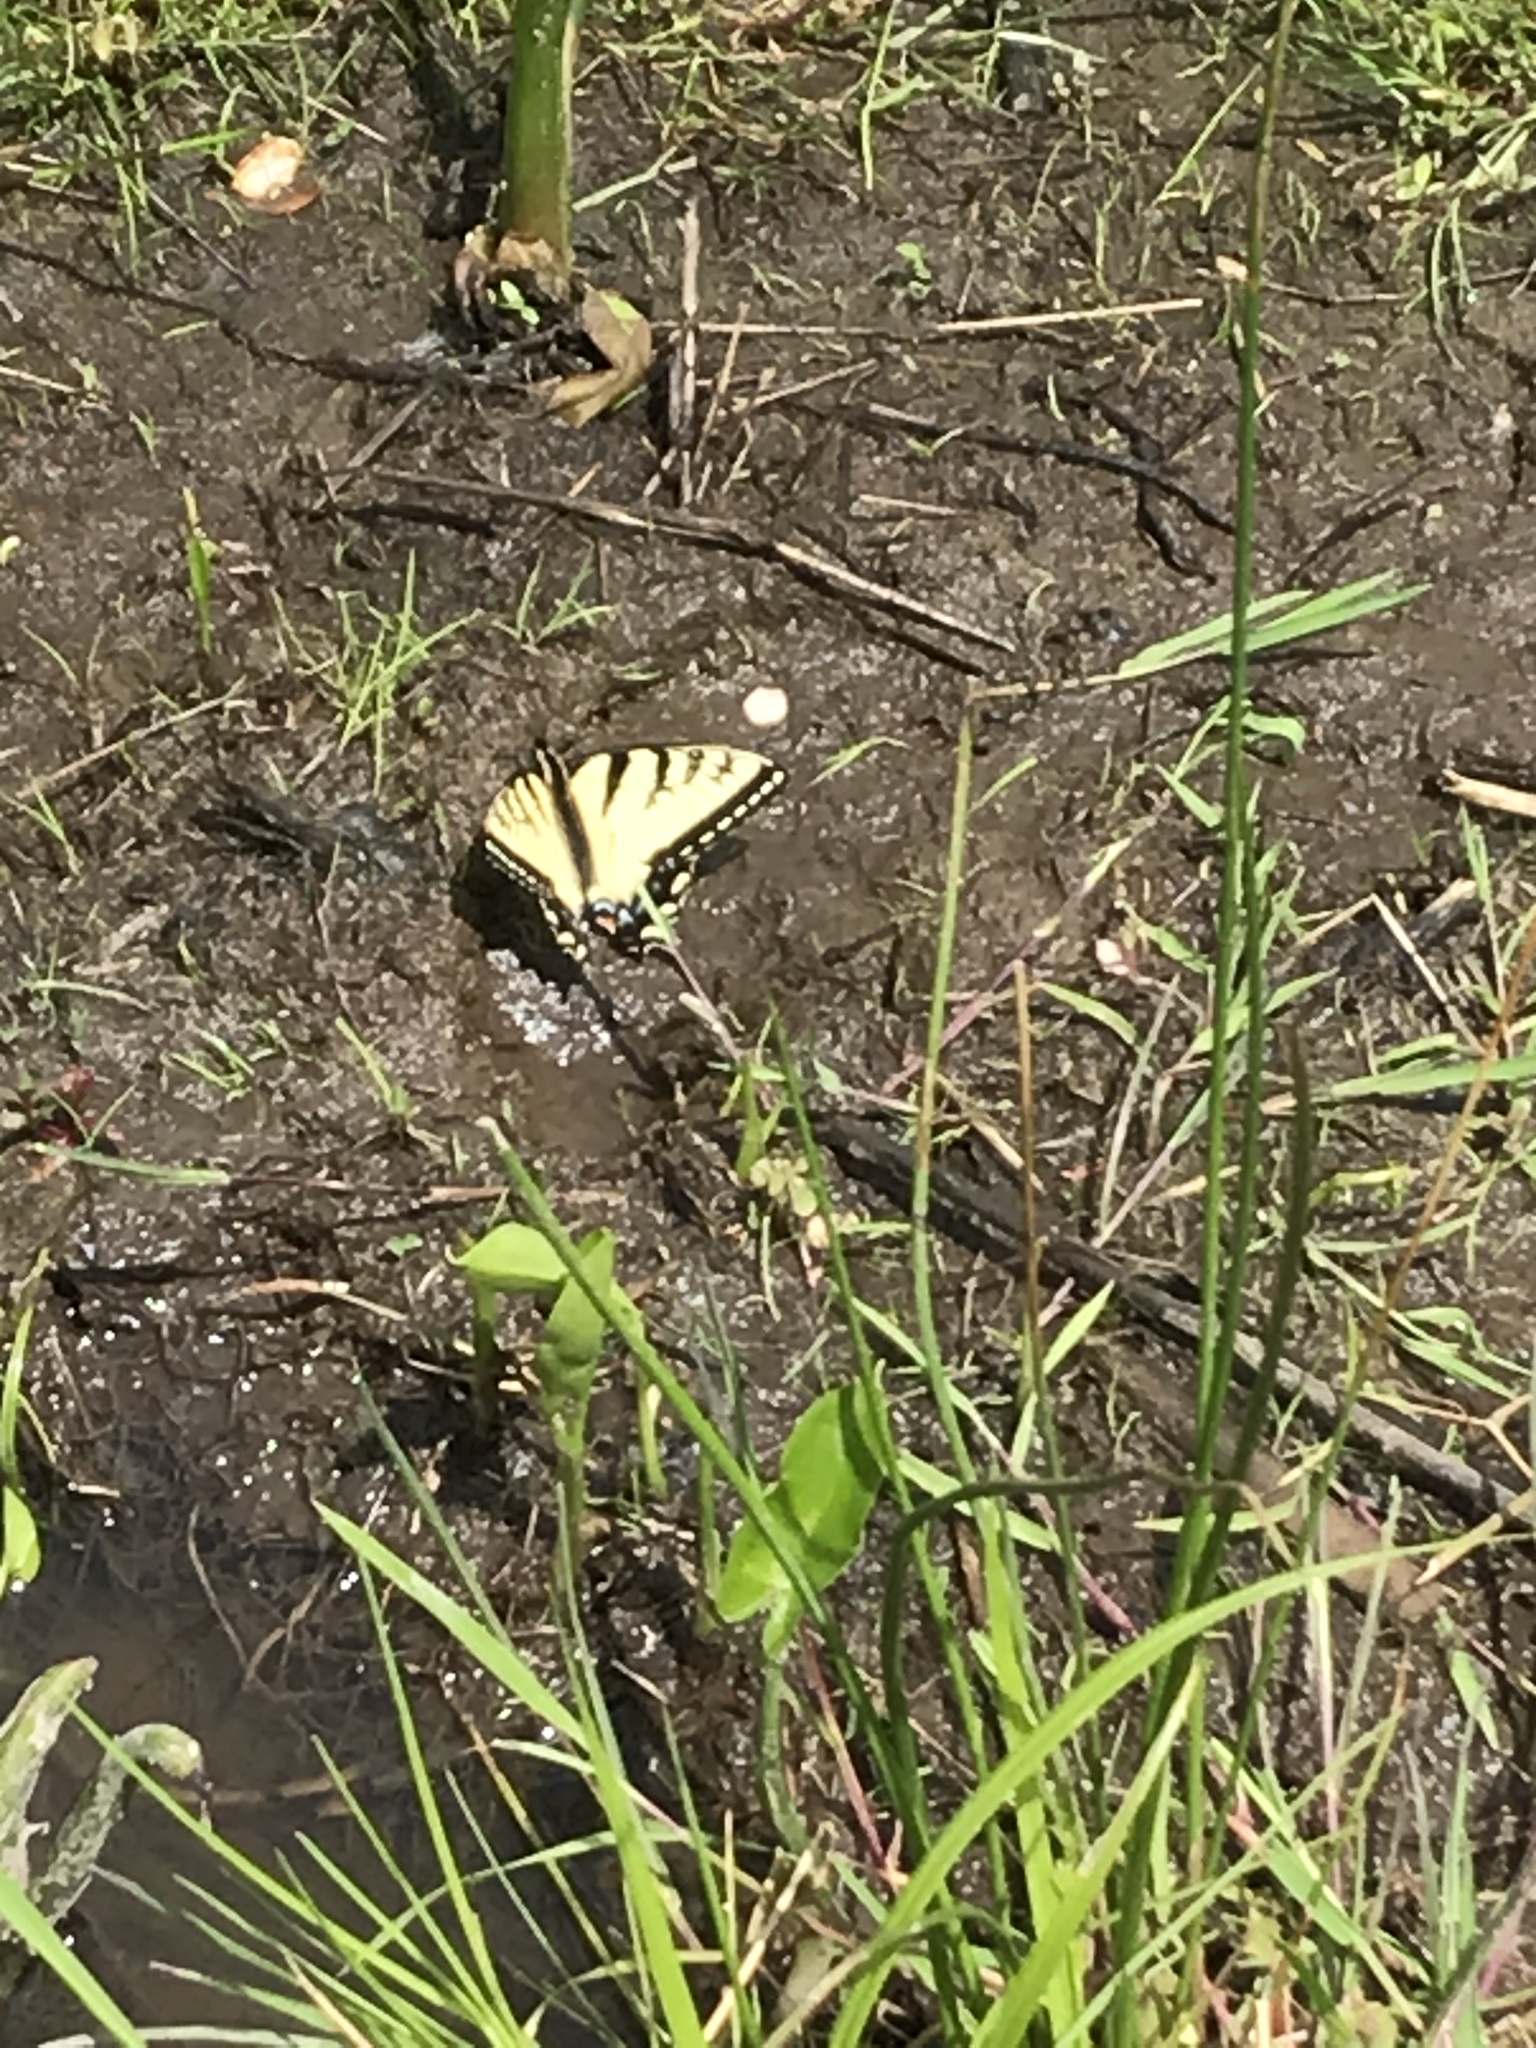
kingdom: Animalia
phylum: Arthropoda
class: Insecta
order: Lepidoptera
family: Papilionidae
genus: Papilio
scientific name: Papilio glaucus
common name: Tiger swallowtail
